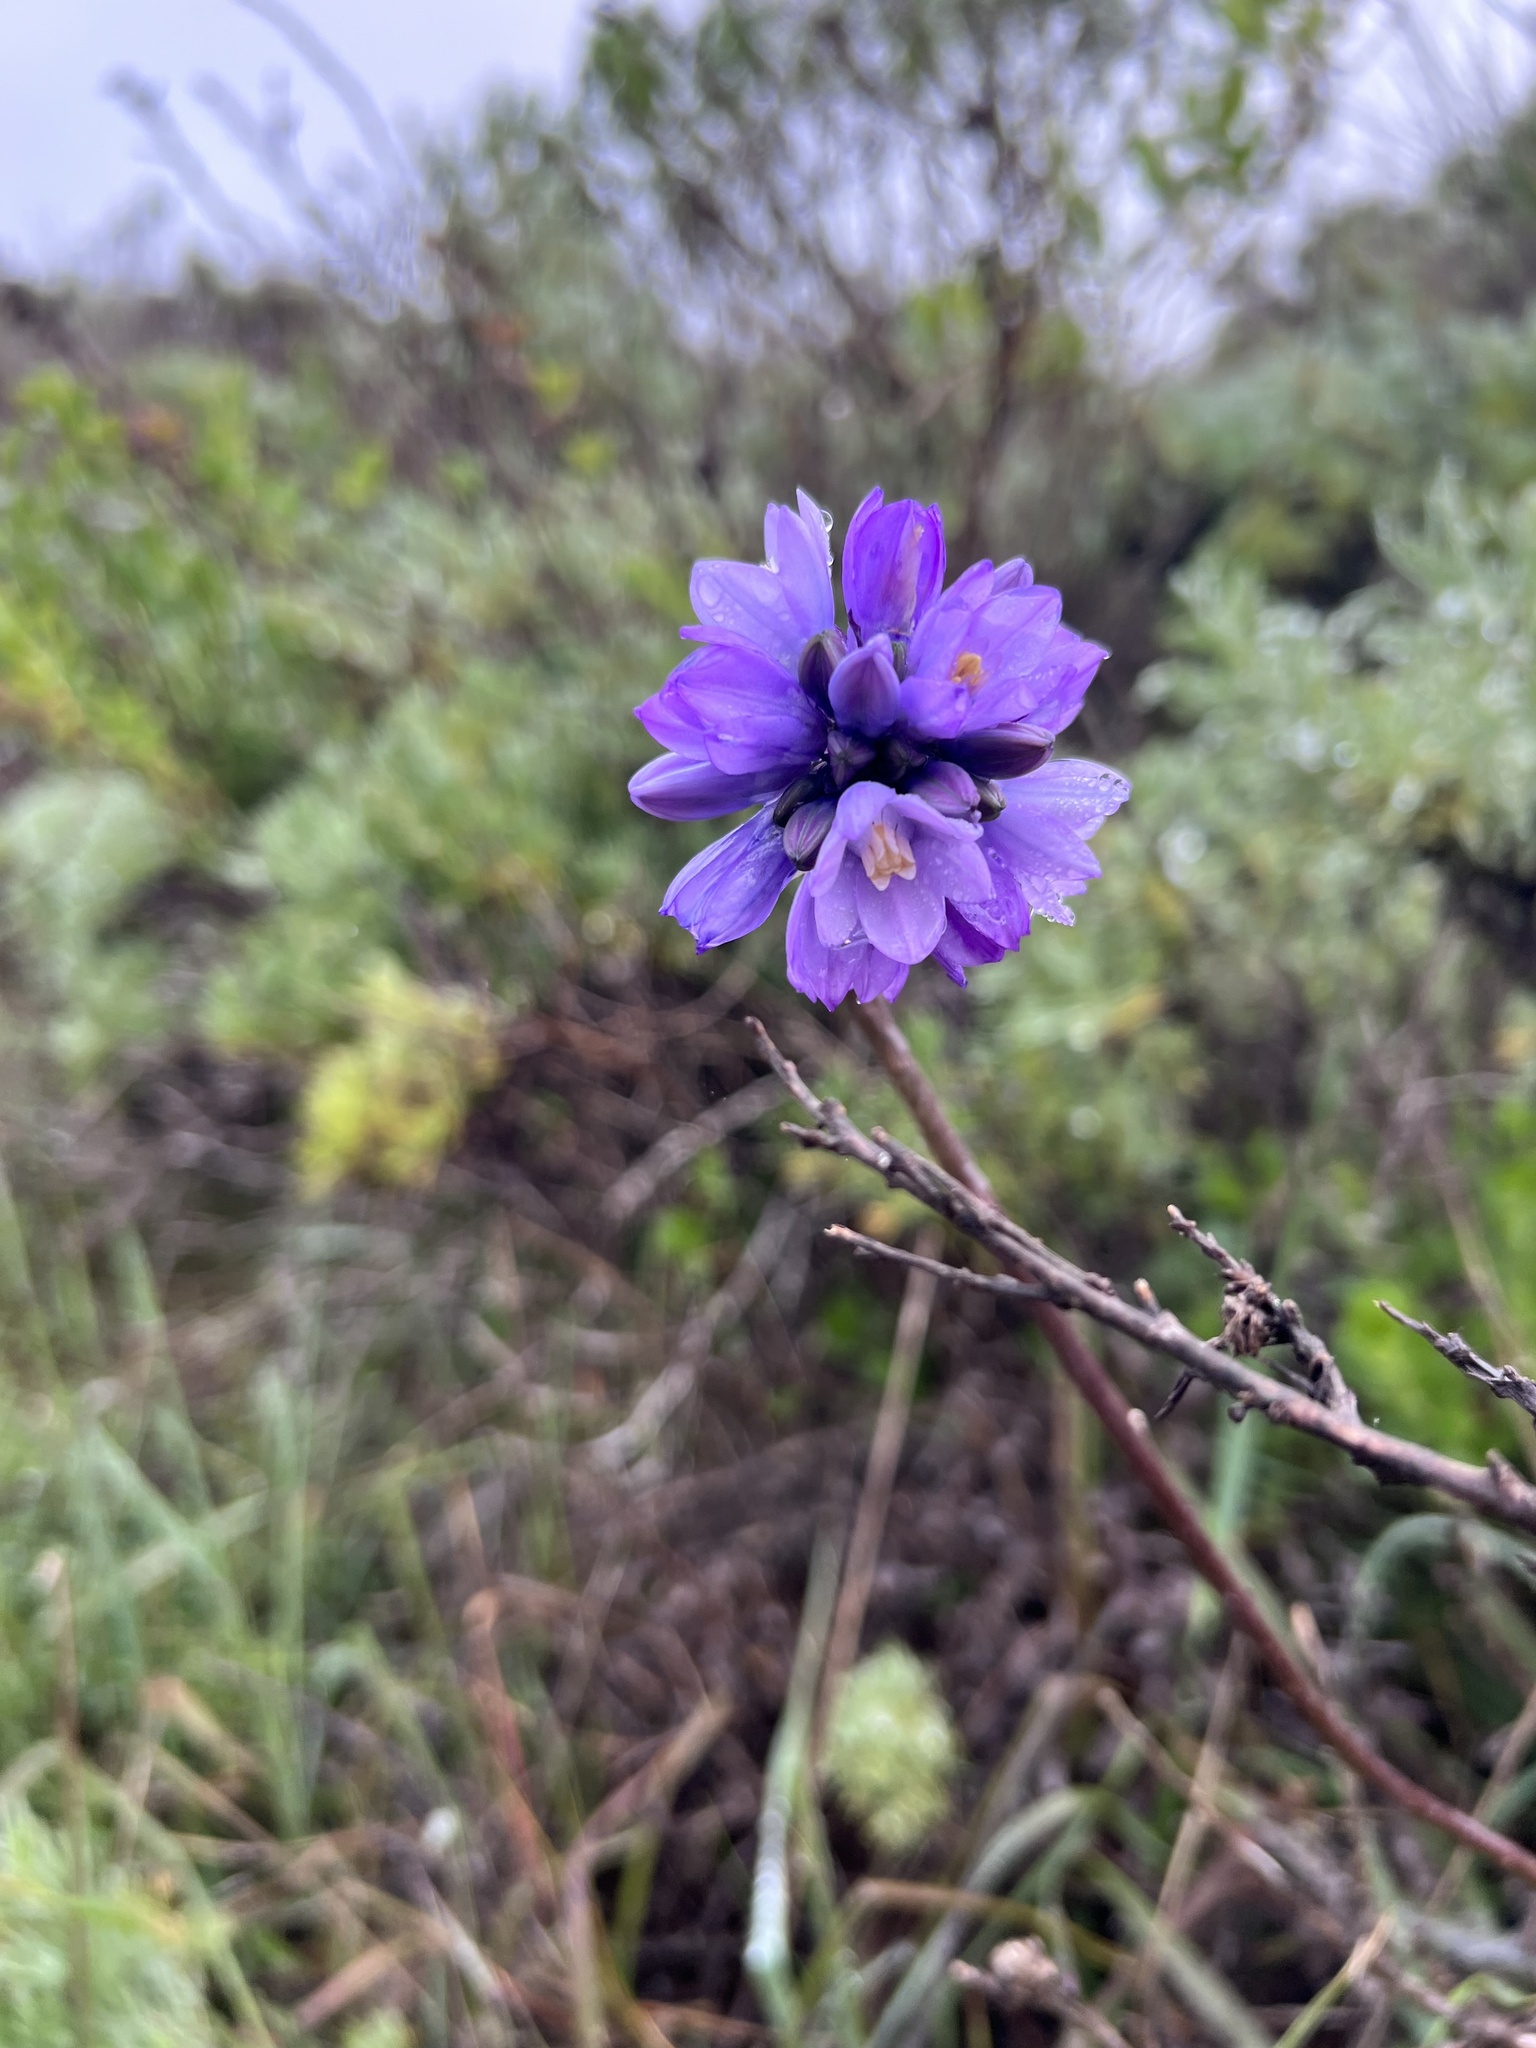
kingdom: Plantae
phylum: Tracheophyta
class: Liliopsida
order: Asparagales
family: Asparagaceae
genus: Dipterostemon
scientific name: Dipterostemon capitatus
